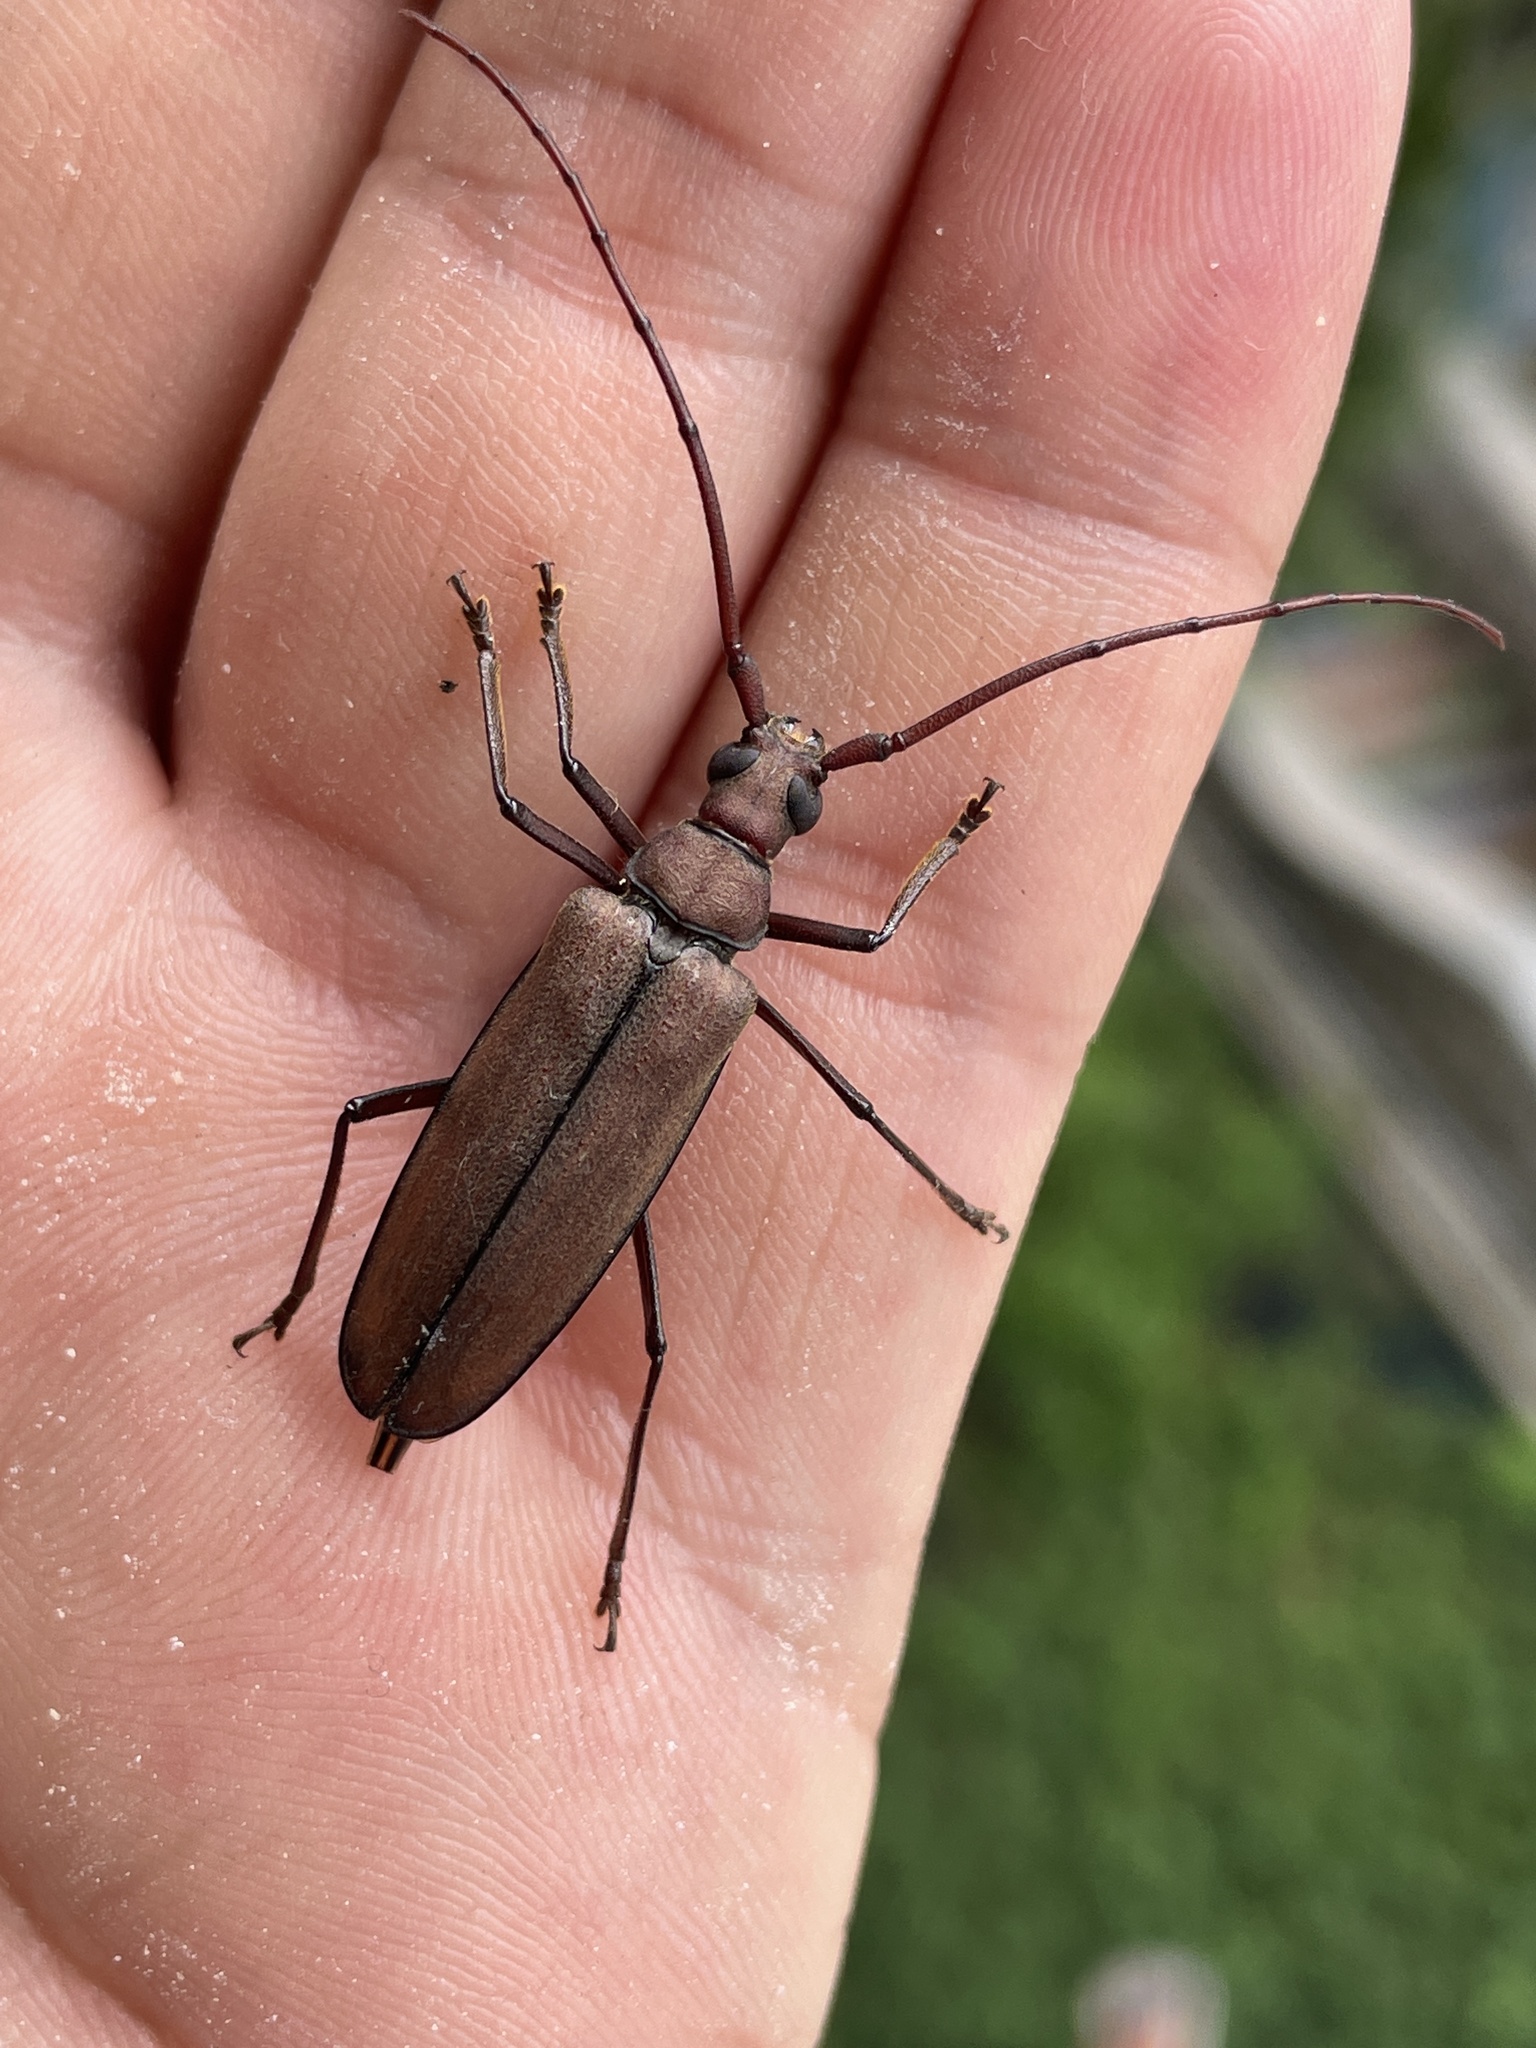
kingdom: Animalia
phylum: Arthropoda
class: Insecta
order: Coleoptera
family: Cerambycidae
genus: Aegolipton
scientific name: Aegolipton marginale
